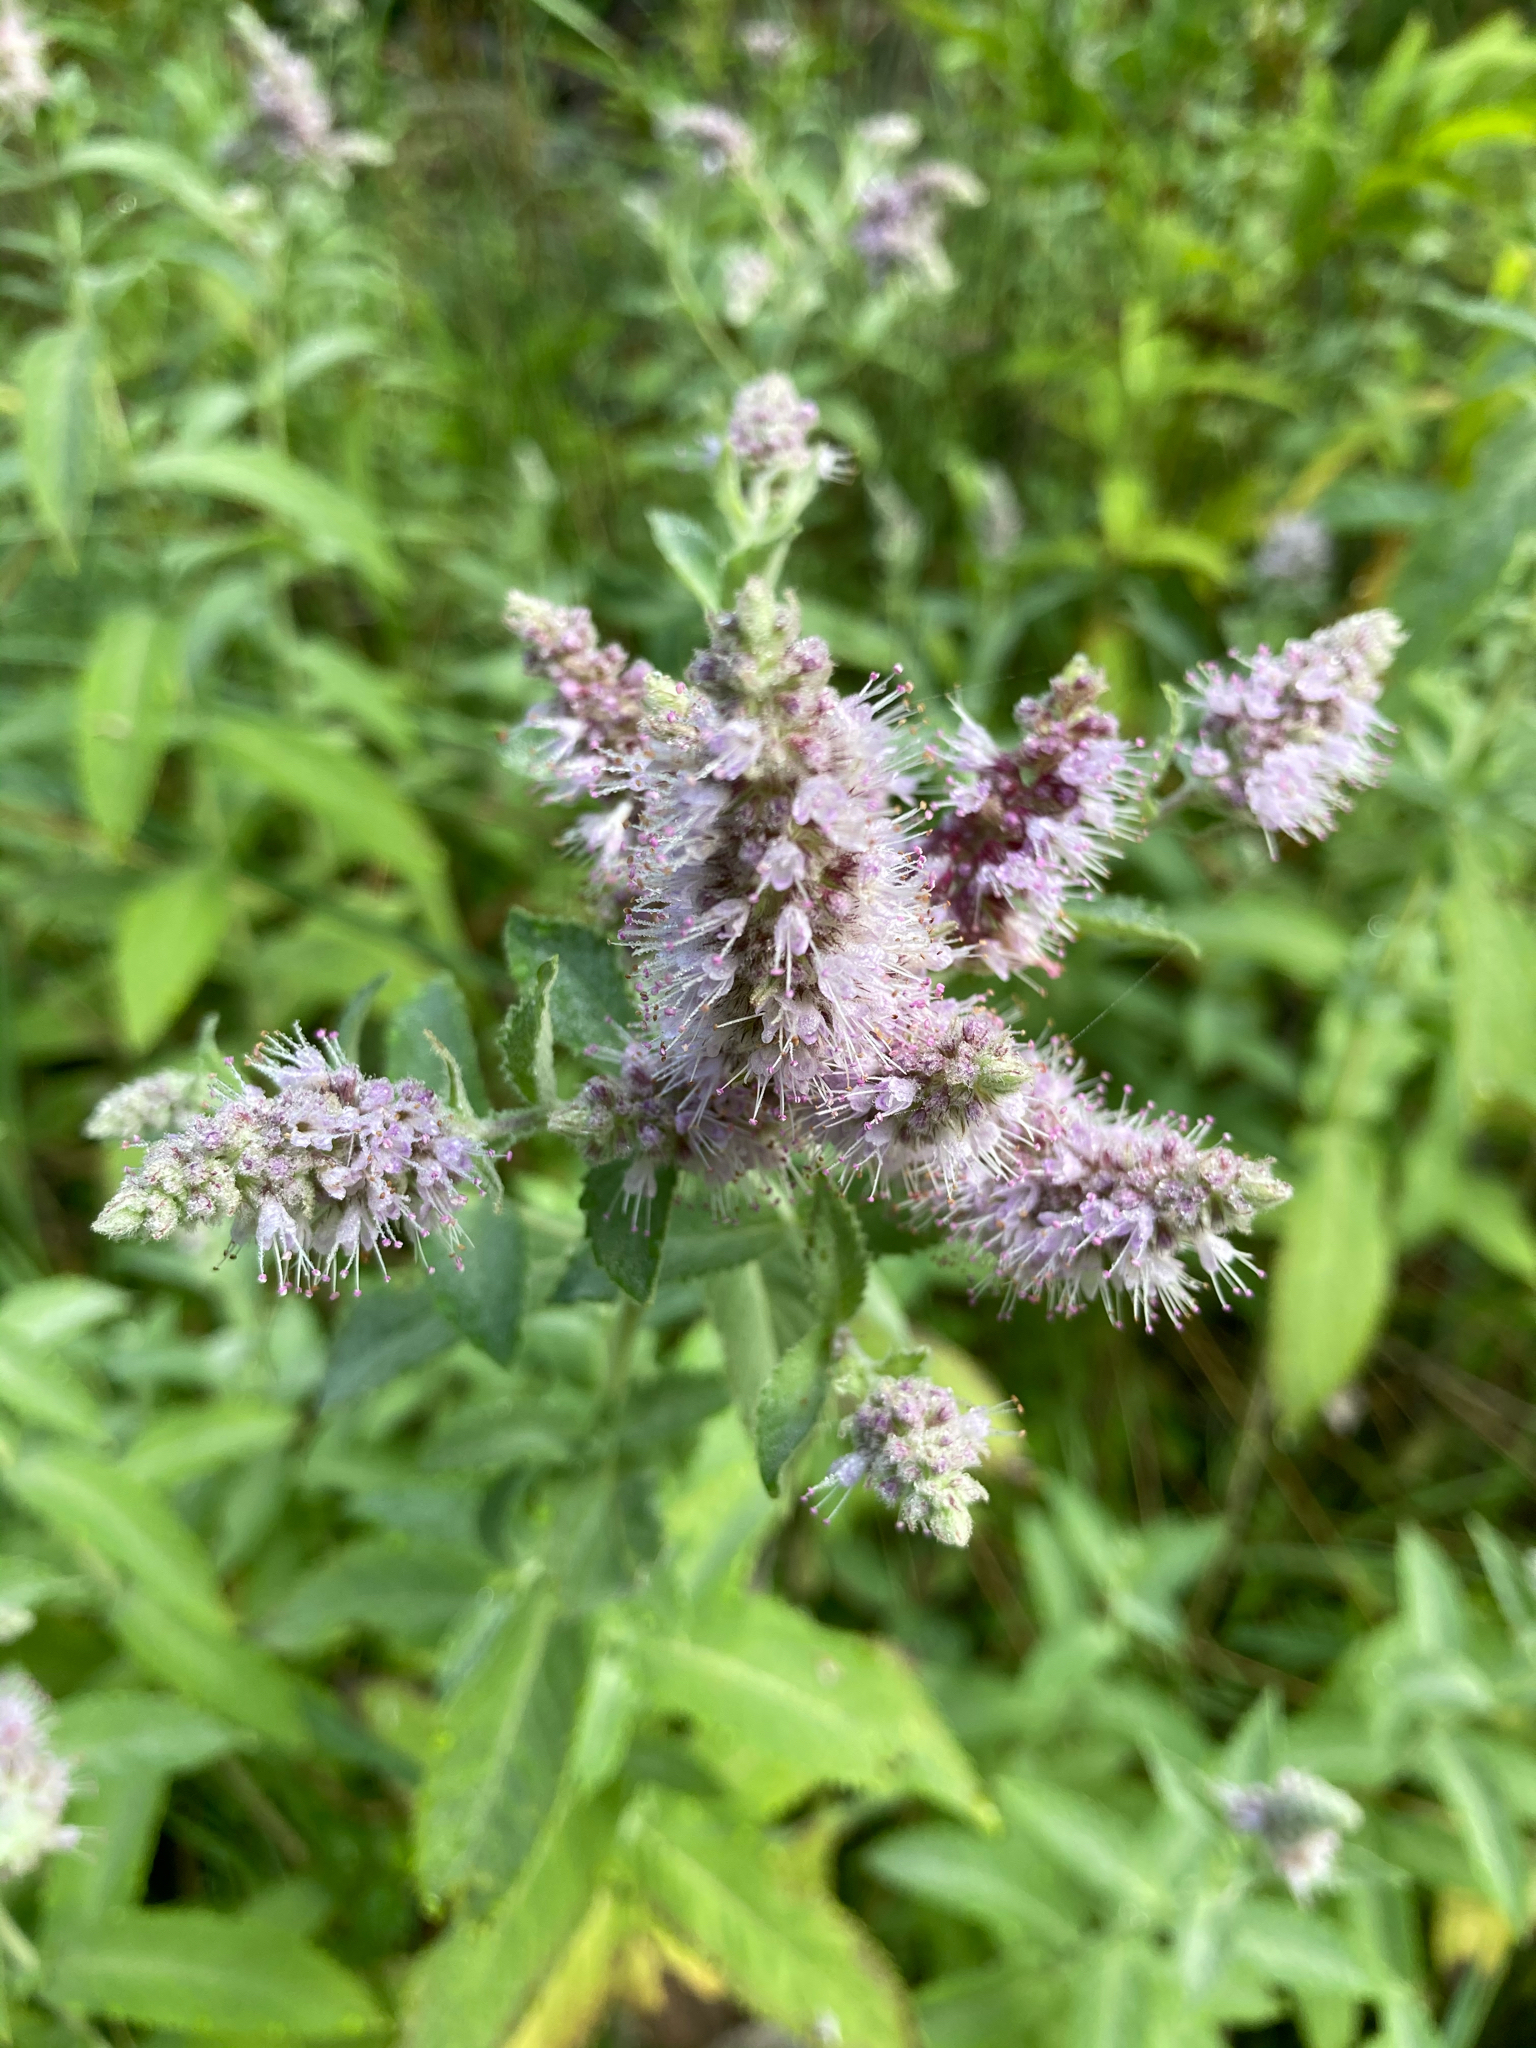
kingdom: Plantae
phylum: Tracheophyta
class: Magnoliopsida
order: Lamiales
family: Lamiaceae
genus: Mentha
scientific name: Mentha longifolia
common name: Horse mint
